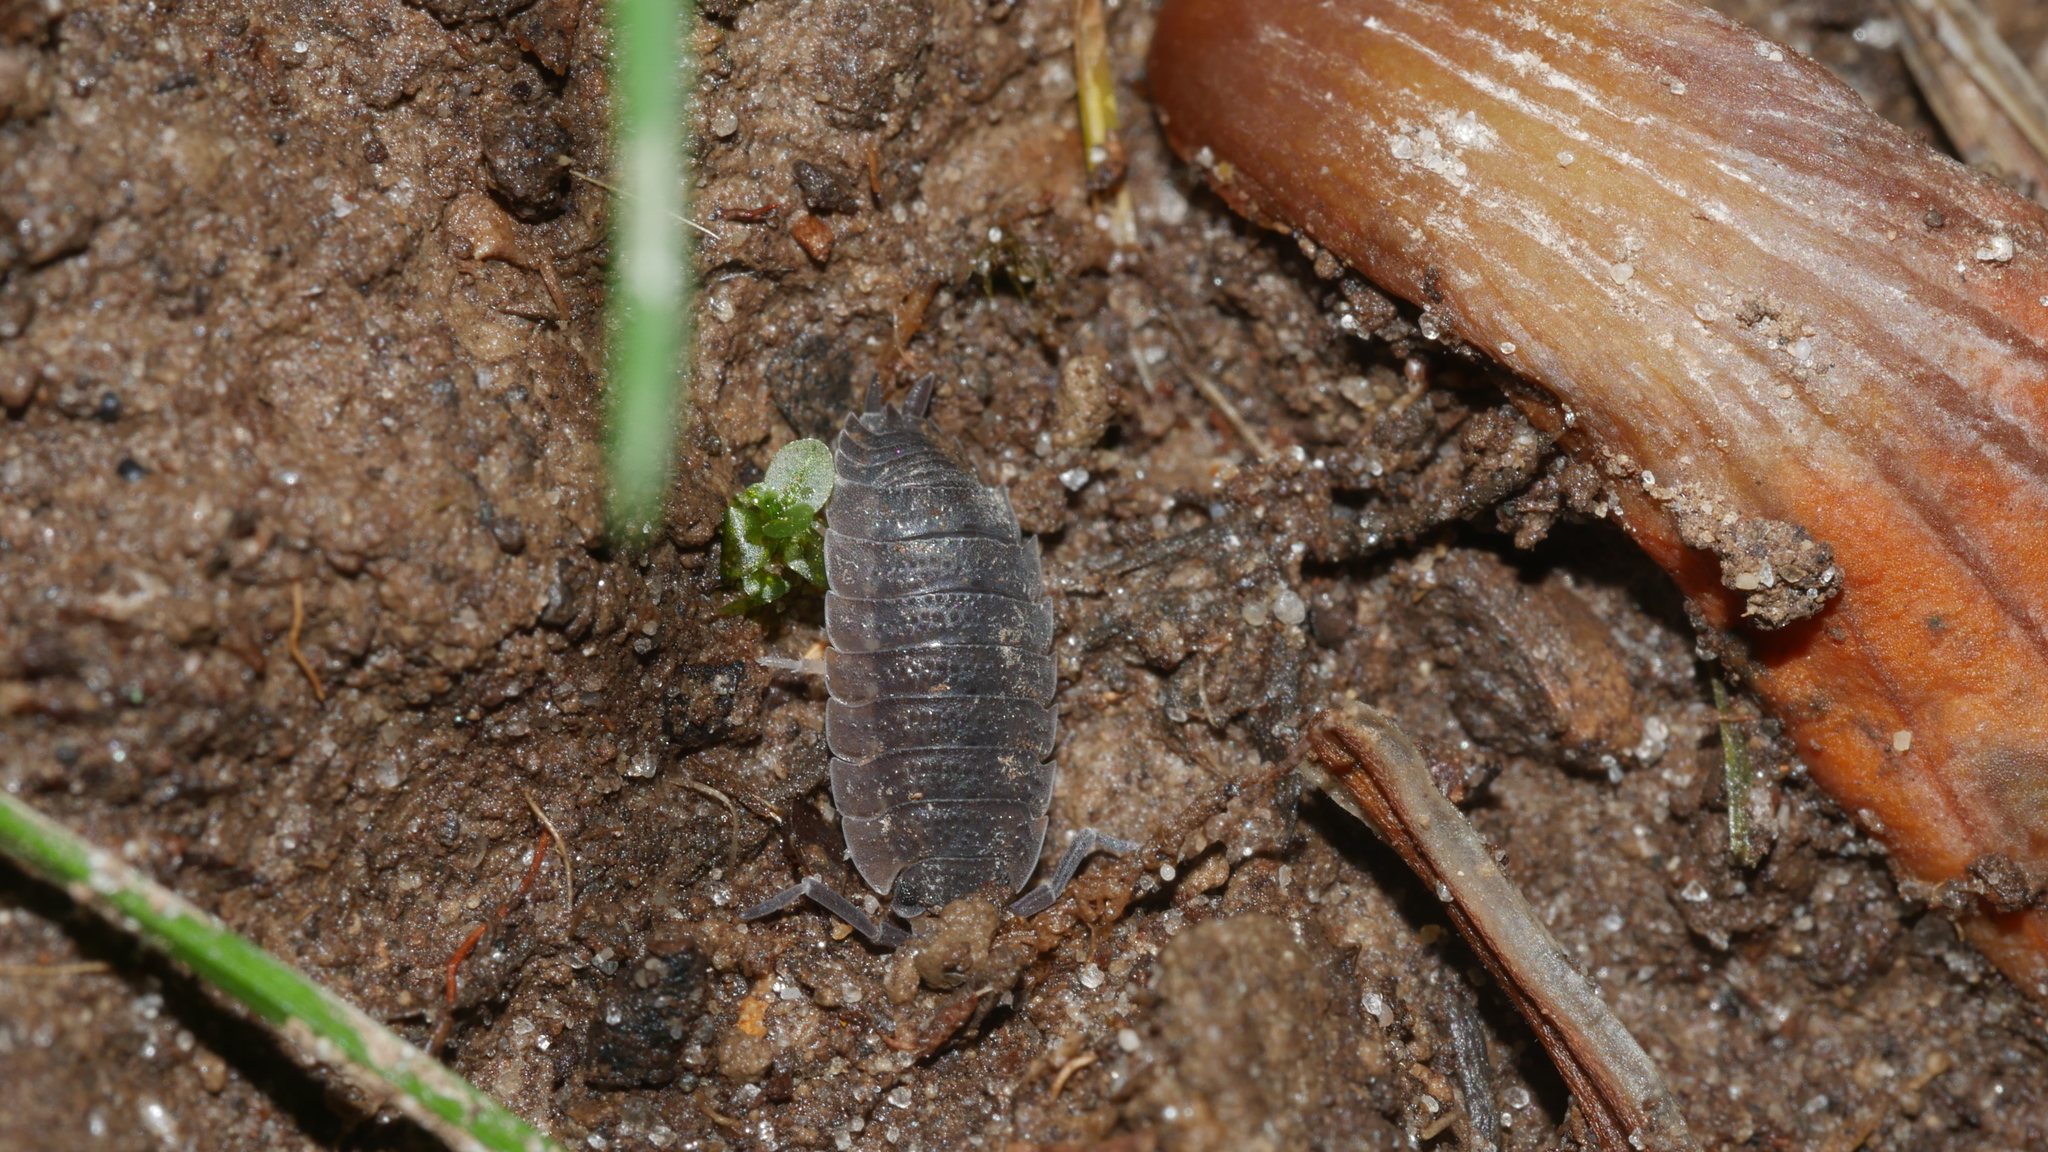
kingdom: Animalia
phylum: Arthropoda
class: Malacostraca
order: Isopoda
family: Porcellionidae
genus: Porcellio
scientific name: Porcellio scaber
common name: Common rough woodlouse
